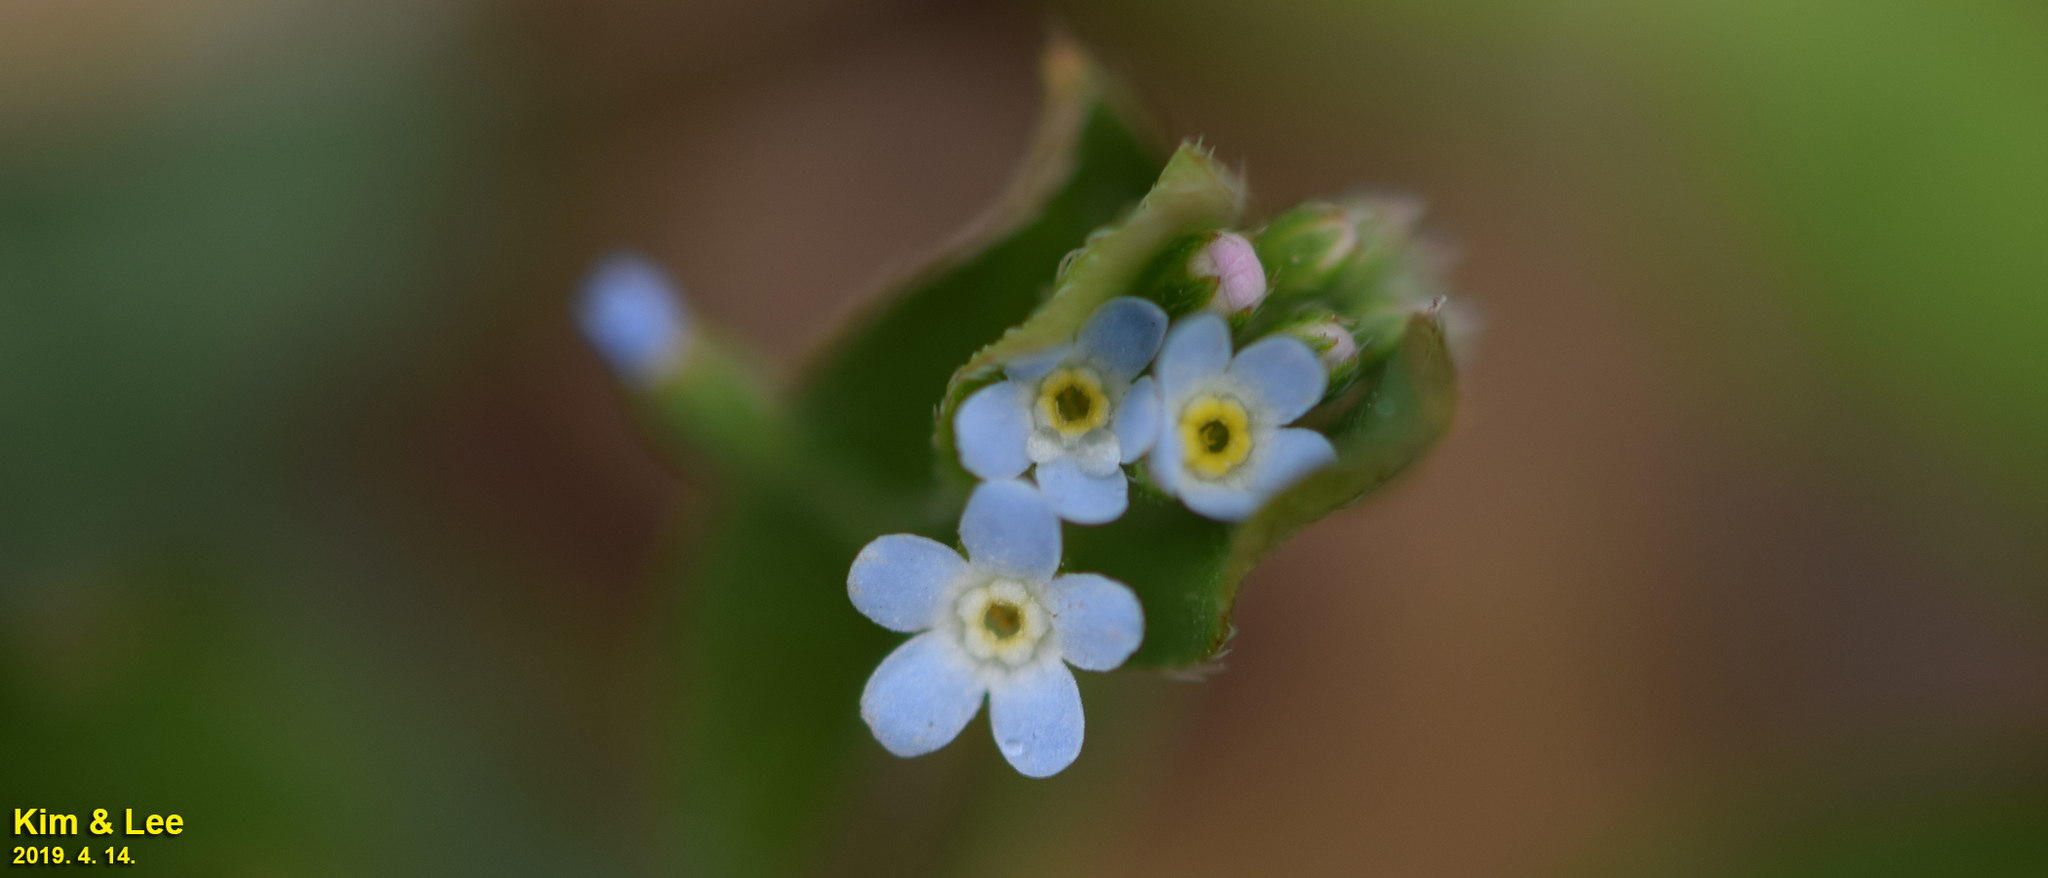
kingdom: Plantae
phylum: Tracheophyta
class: Magnoliopsida
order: Boraginales
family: Boraginaceae
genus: Trigonotis
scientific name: Trigonotis peduncularis
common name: Cucumber herb
